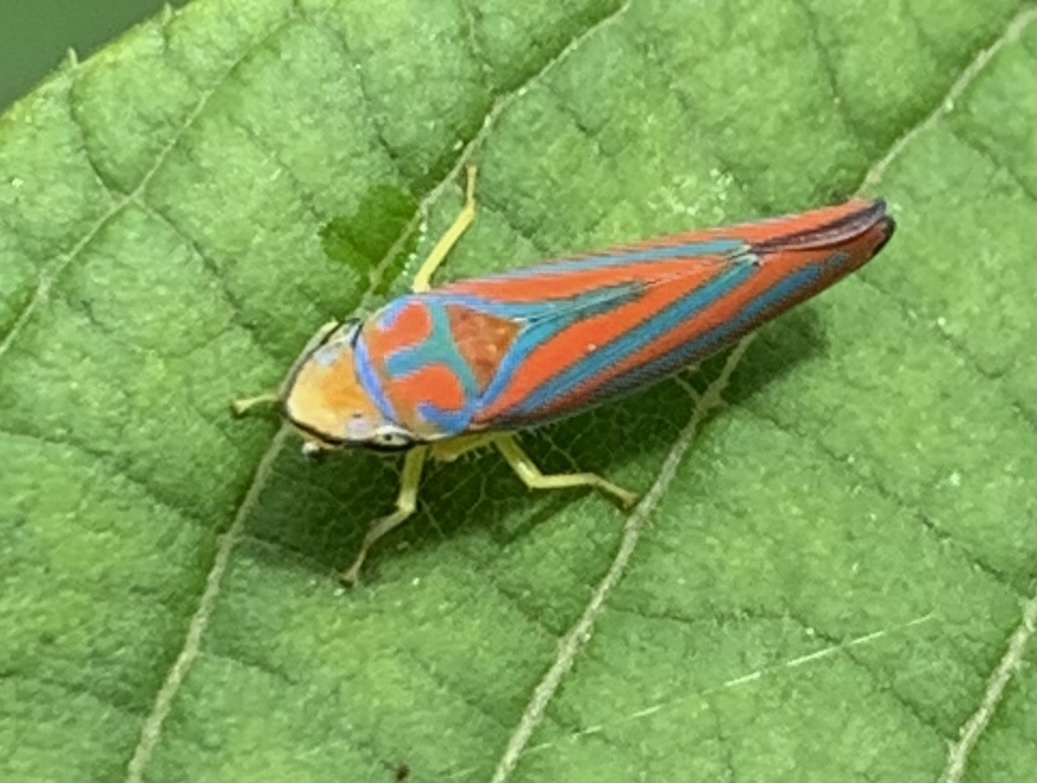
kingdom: Animalia
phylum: Arthropoda
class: Insecta
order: Hemiptera
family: Cicadellidae
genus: Graphocephala
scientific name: Graphocephala coccinea
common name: Candy-striped leafhopper
